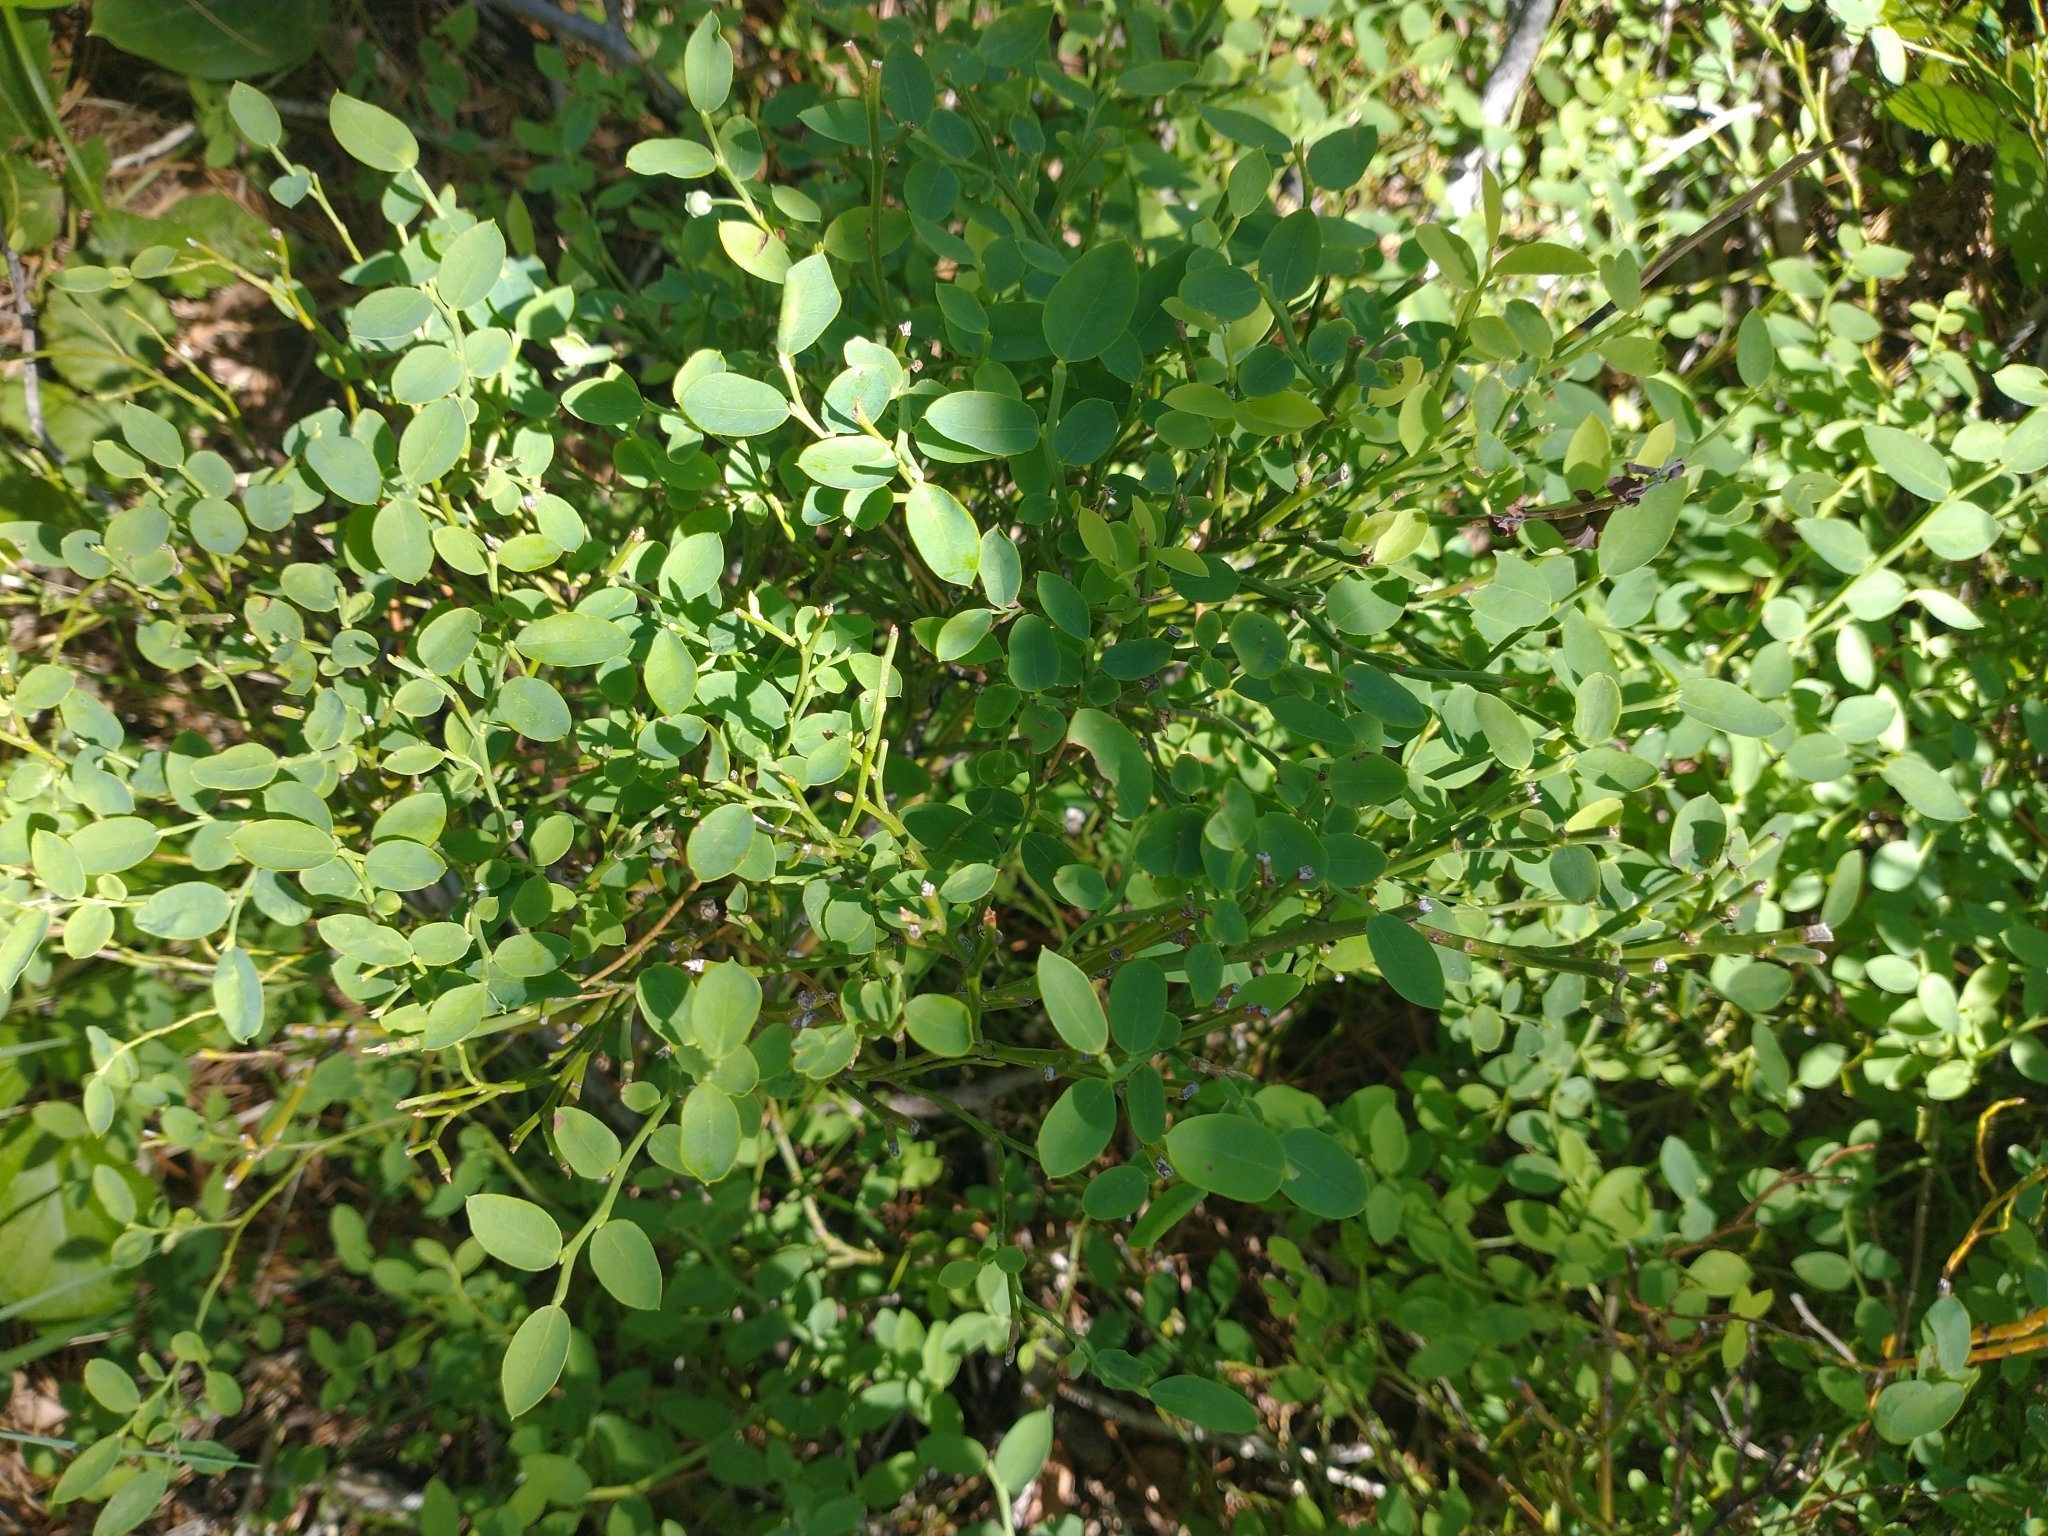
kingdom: Plantae
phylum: Tracheophyta
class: Magnoliopsida
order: Ericales
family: Ericaceae
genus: Vaccinium
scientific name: Vaccinium parvifolium
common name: Red-huckleberry
